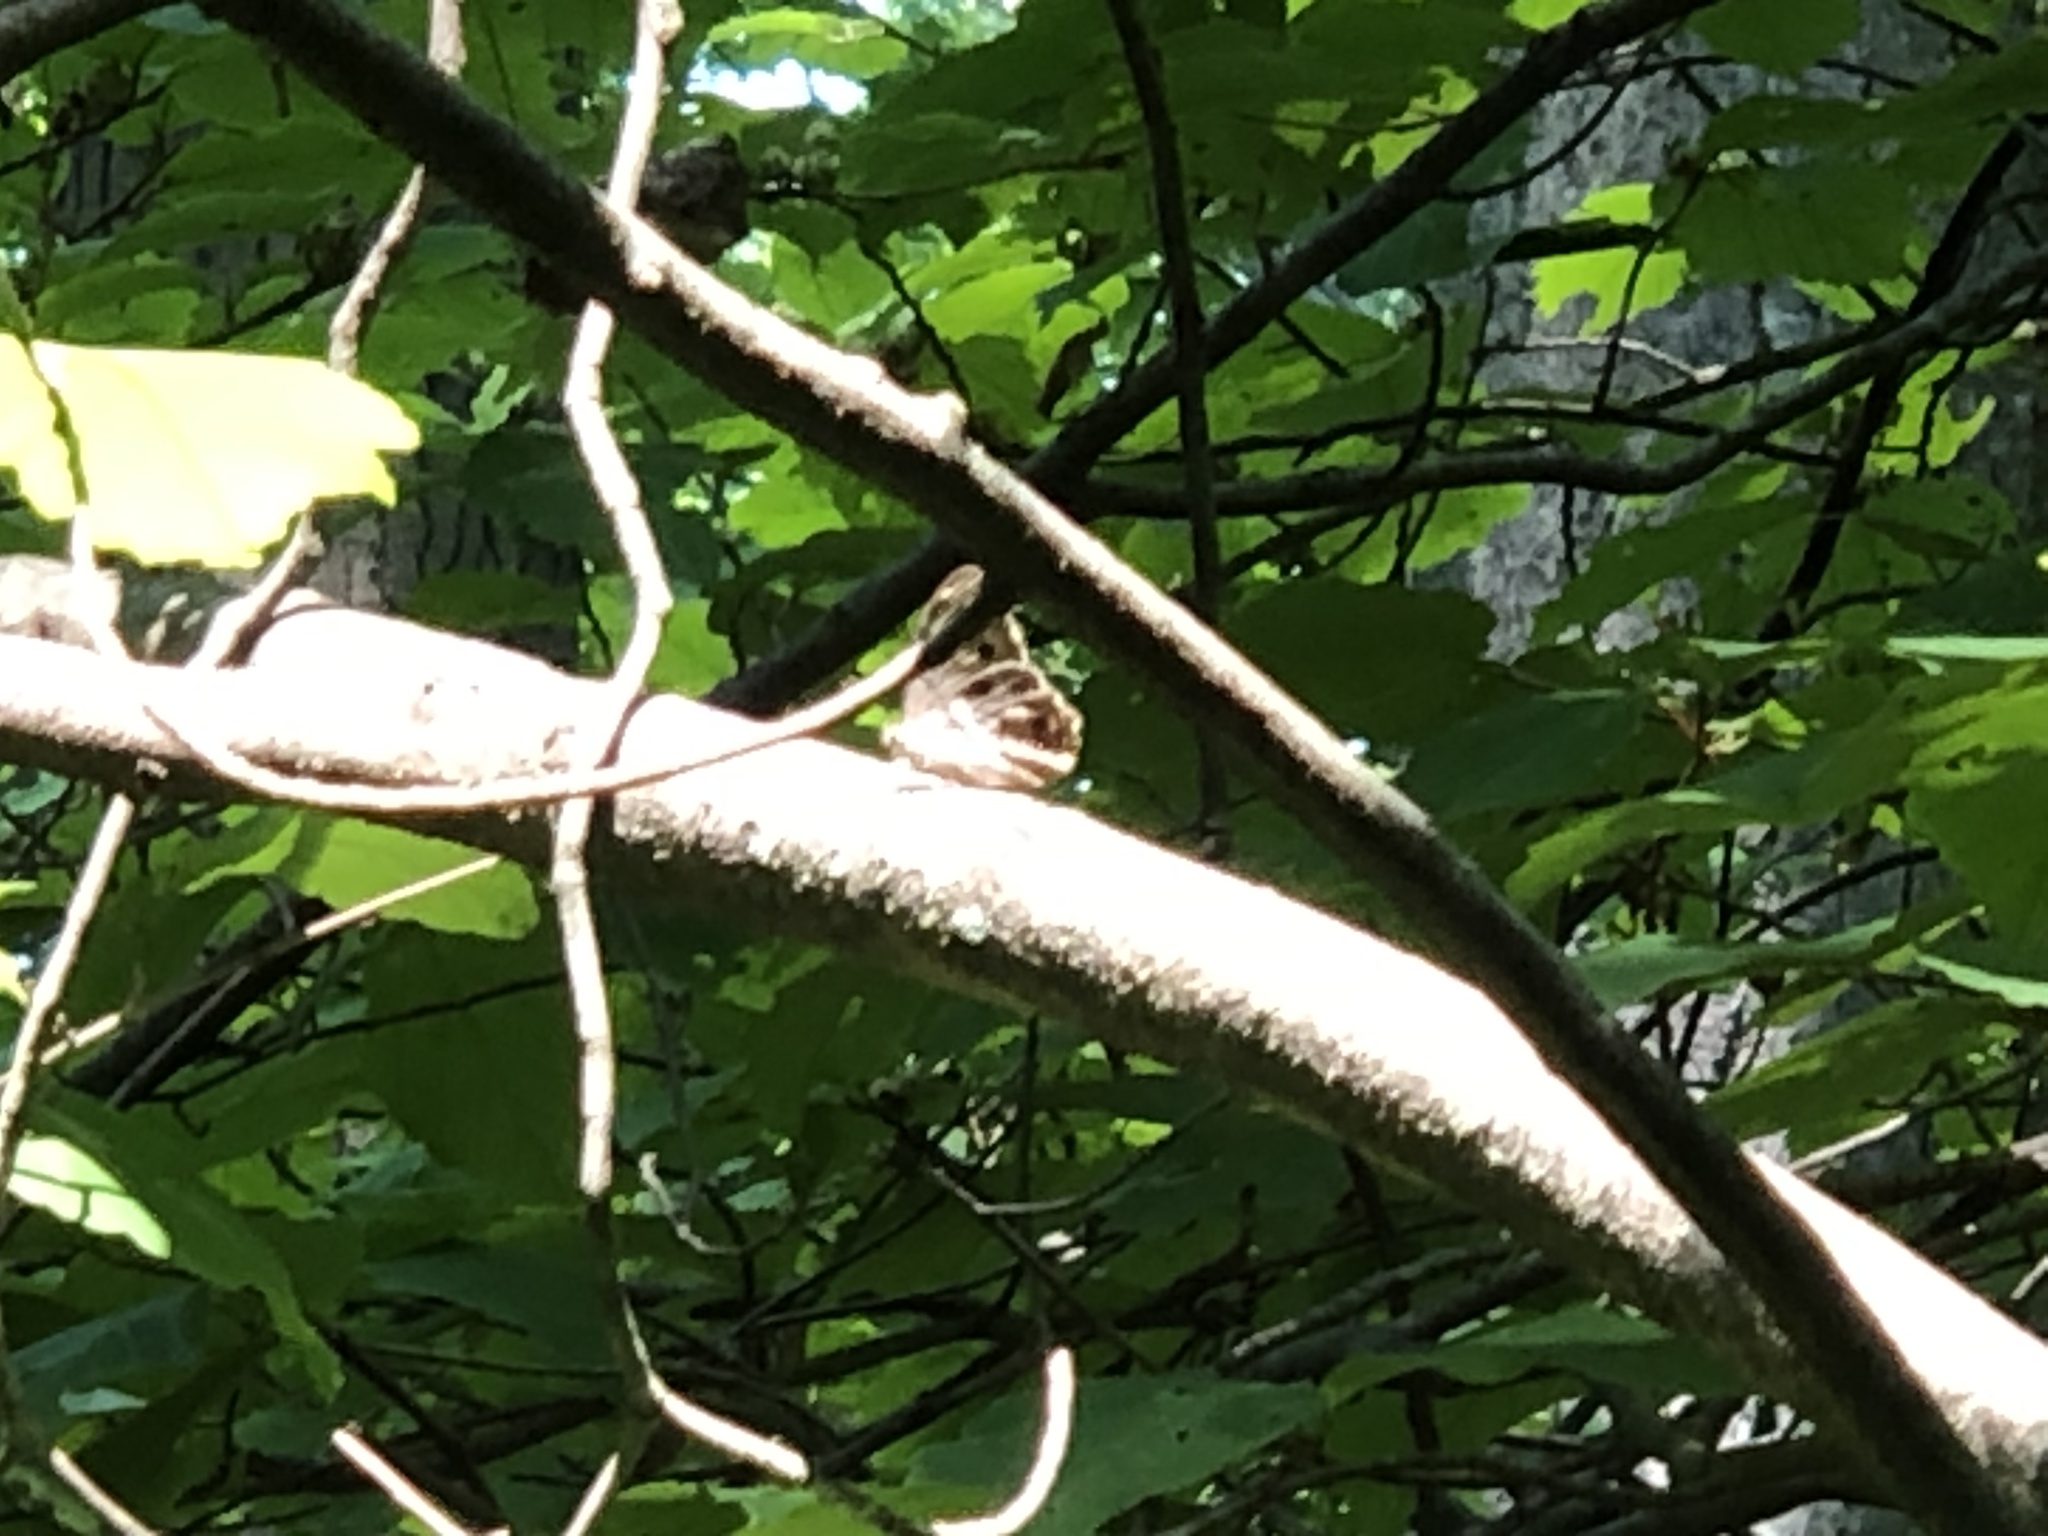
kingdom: Animalia
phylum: Arthropoda
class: Insecta
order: Lepidoptera
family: Nymphalidae
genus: Lethe
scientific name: Lethe anthedon
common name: Northern pearly-eye
